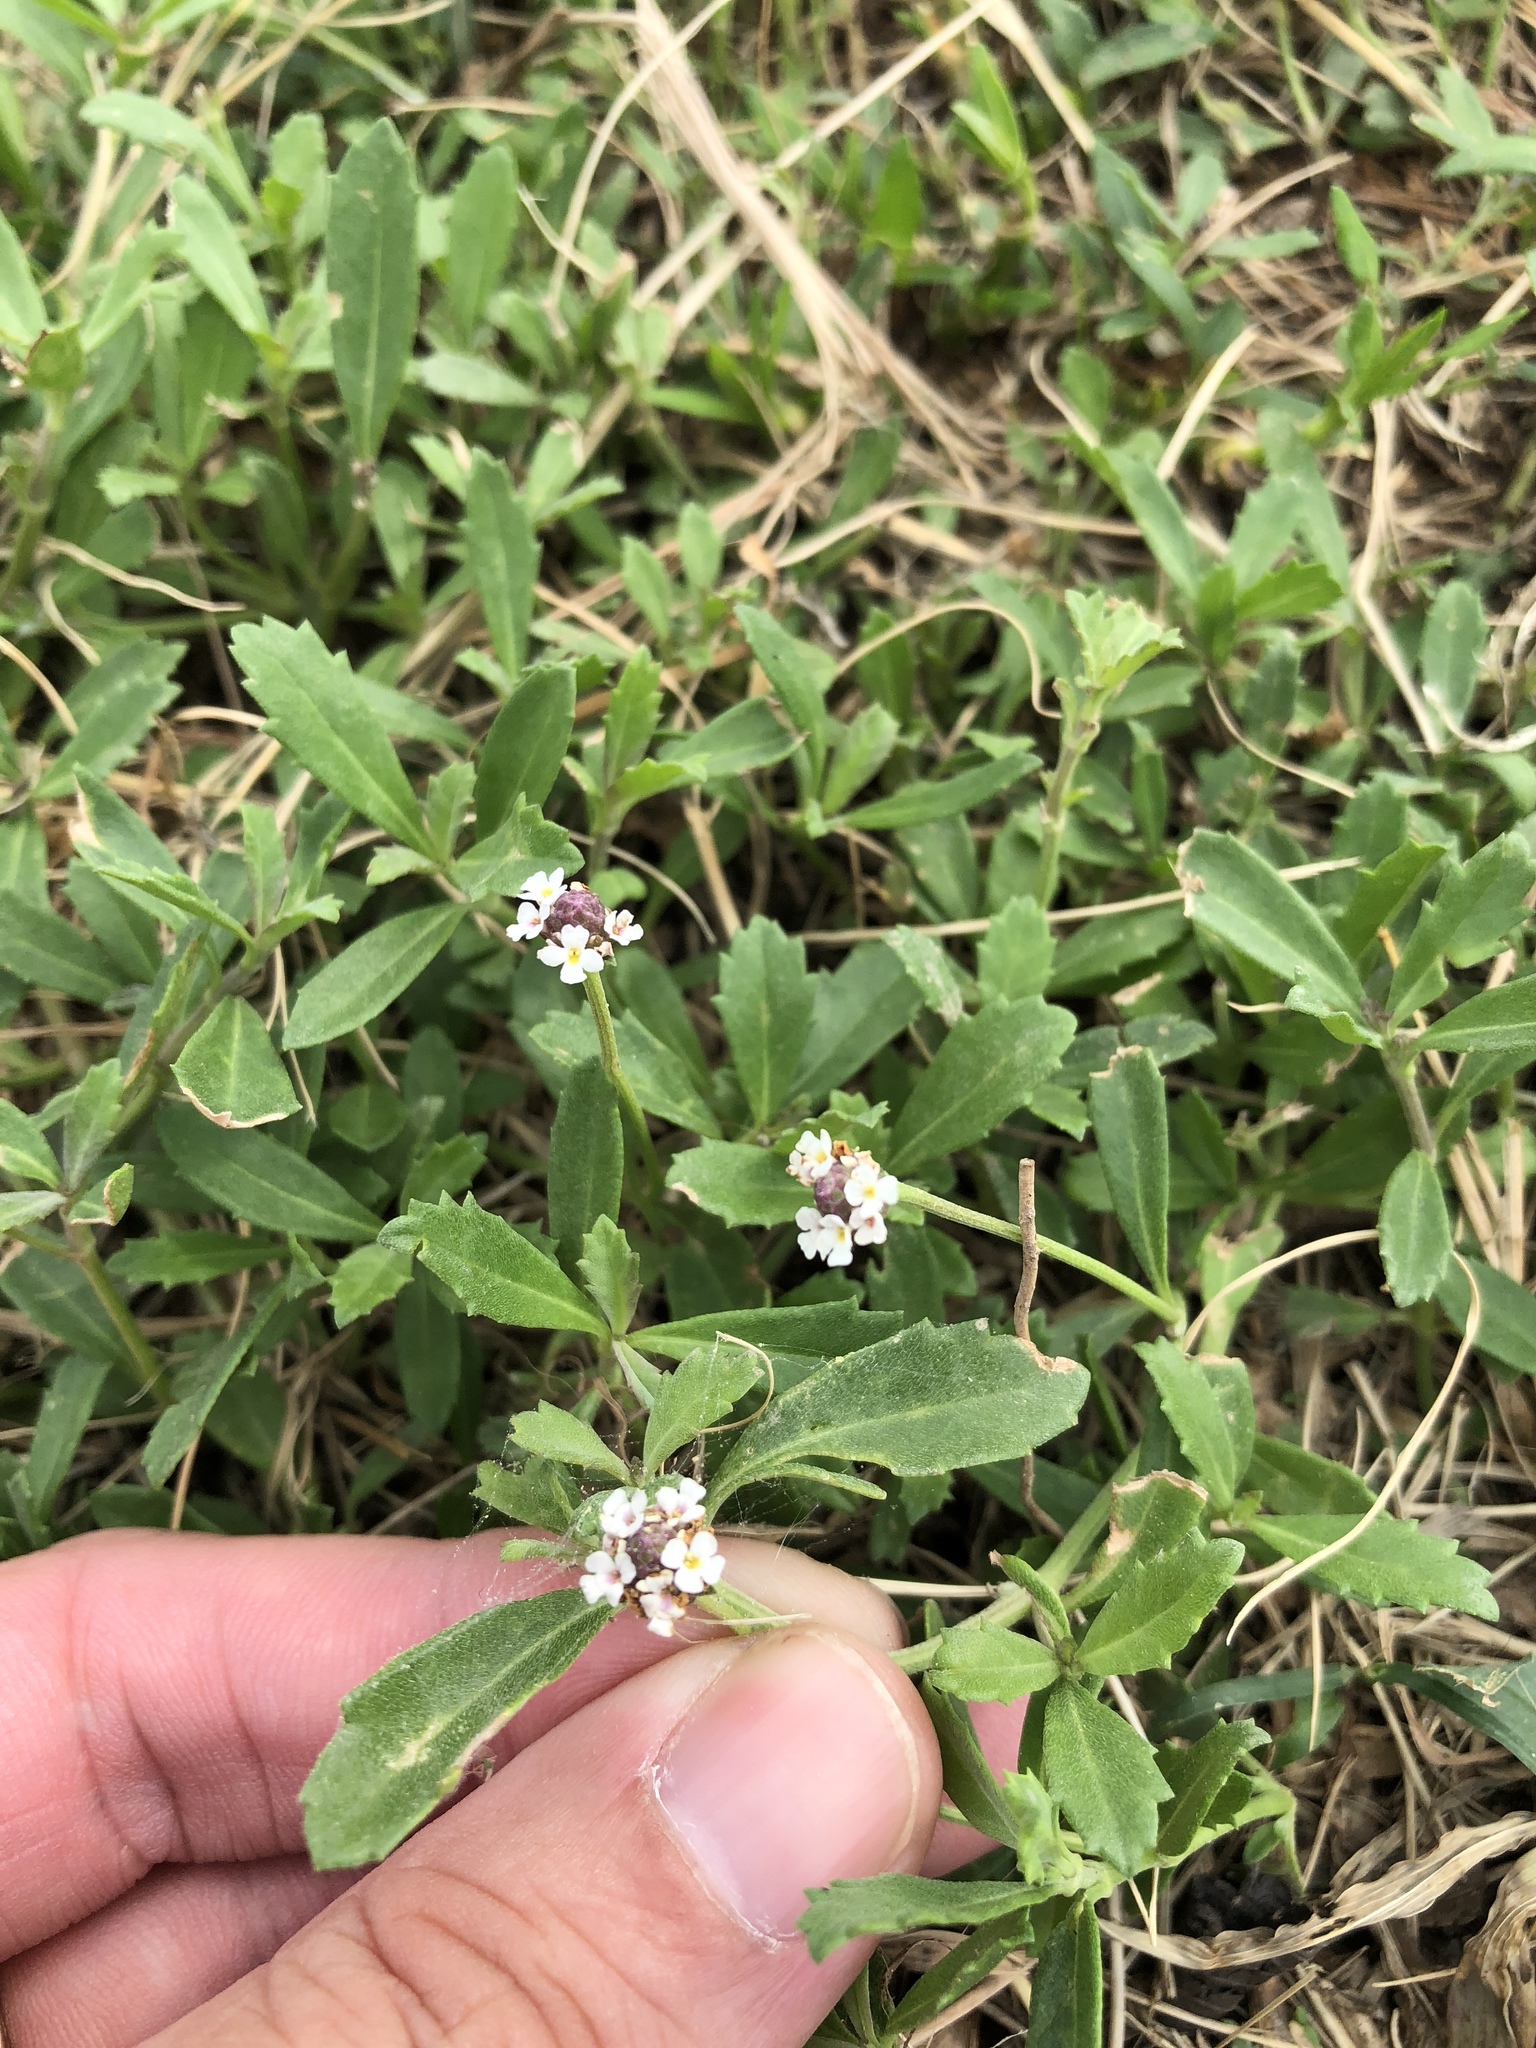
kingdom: Plantae
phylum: Tracheophyta
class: Magnoliopsida
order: Lamiales
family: Verbenaceae
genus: Phyla
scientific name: Phyla nodiflora
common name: Frogfruit
